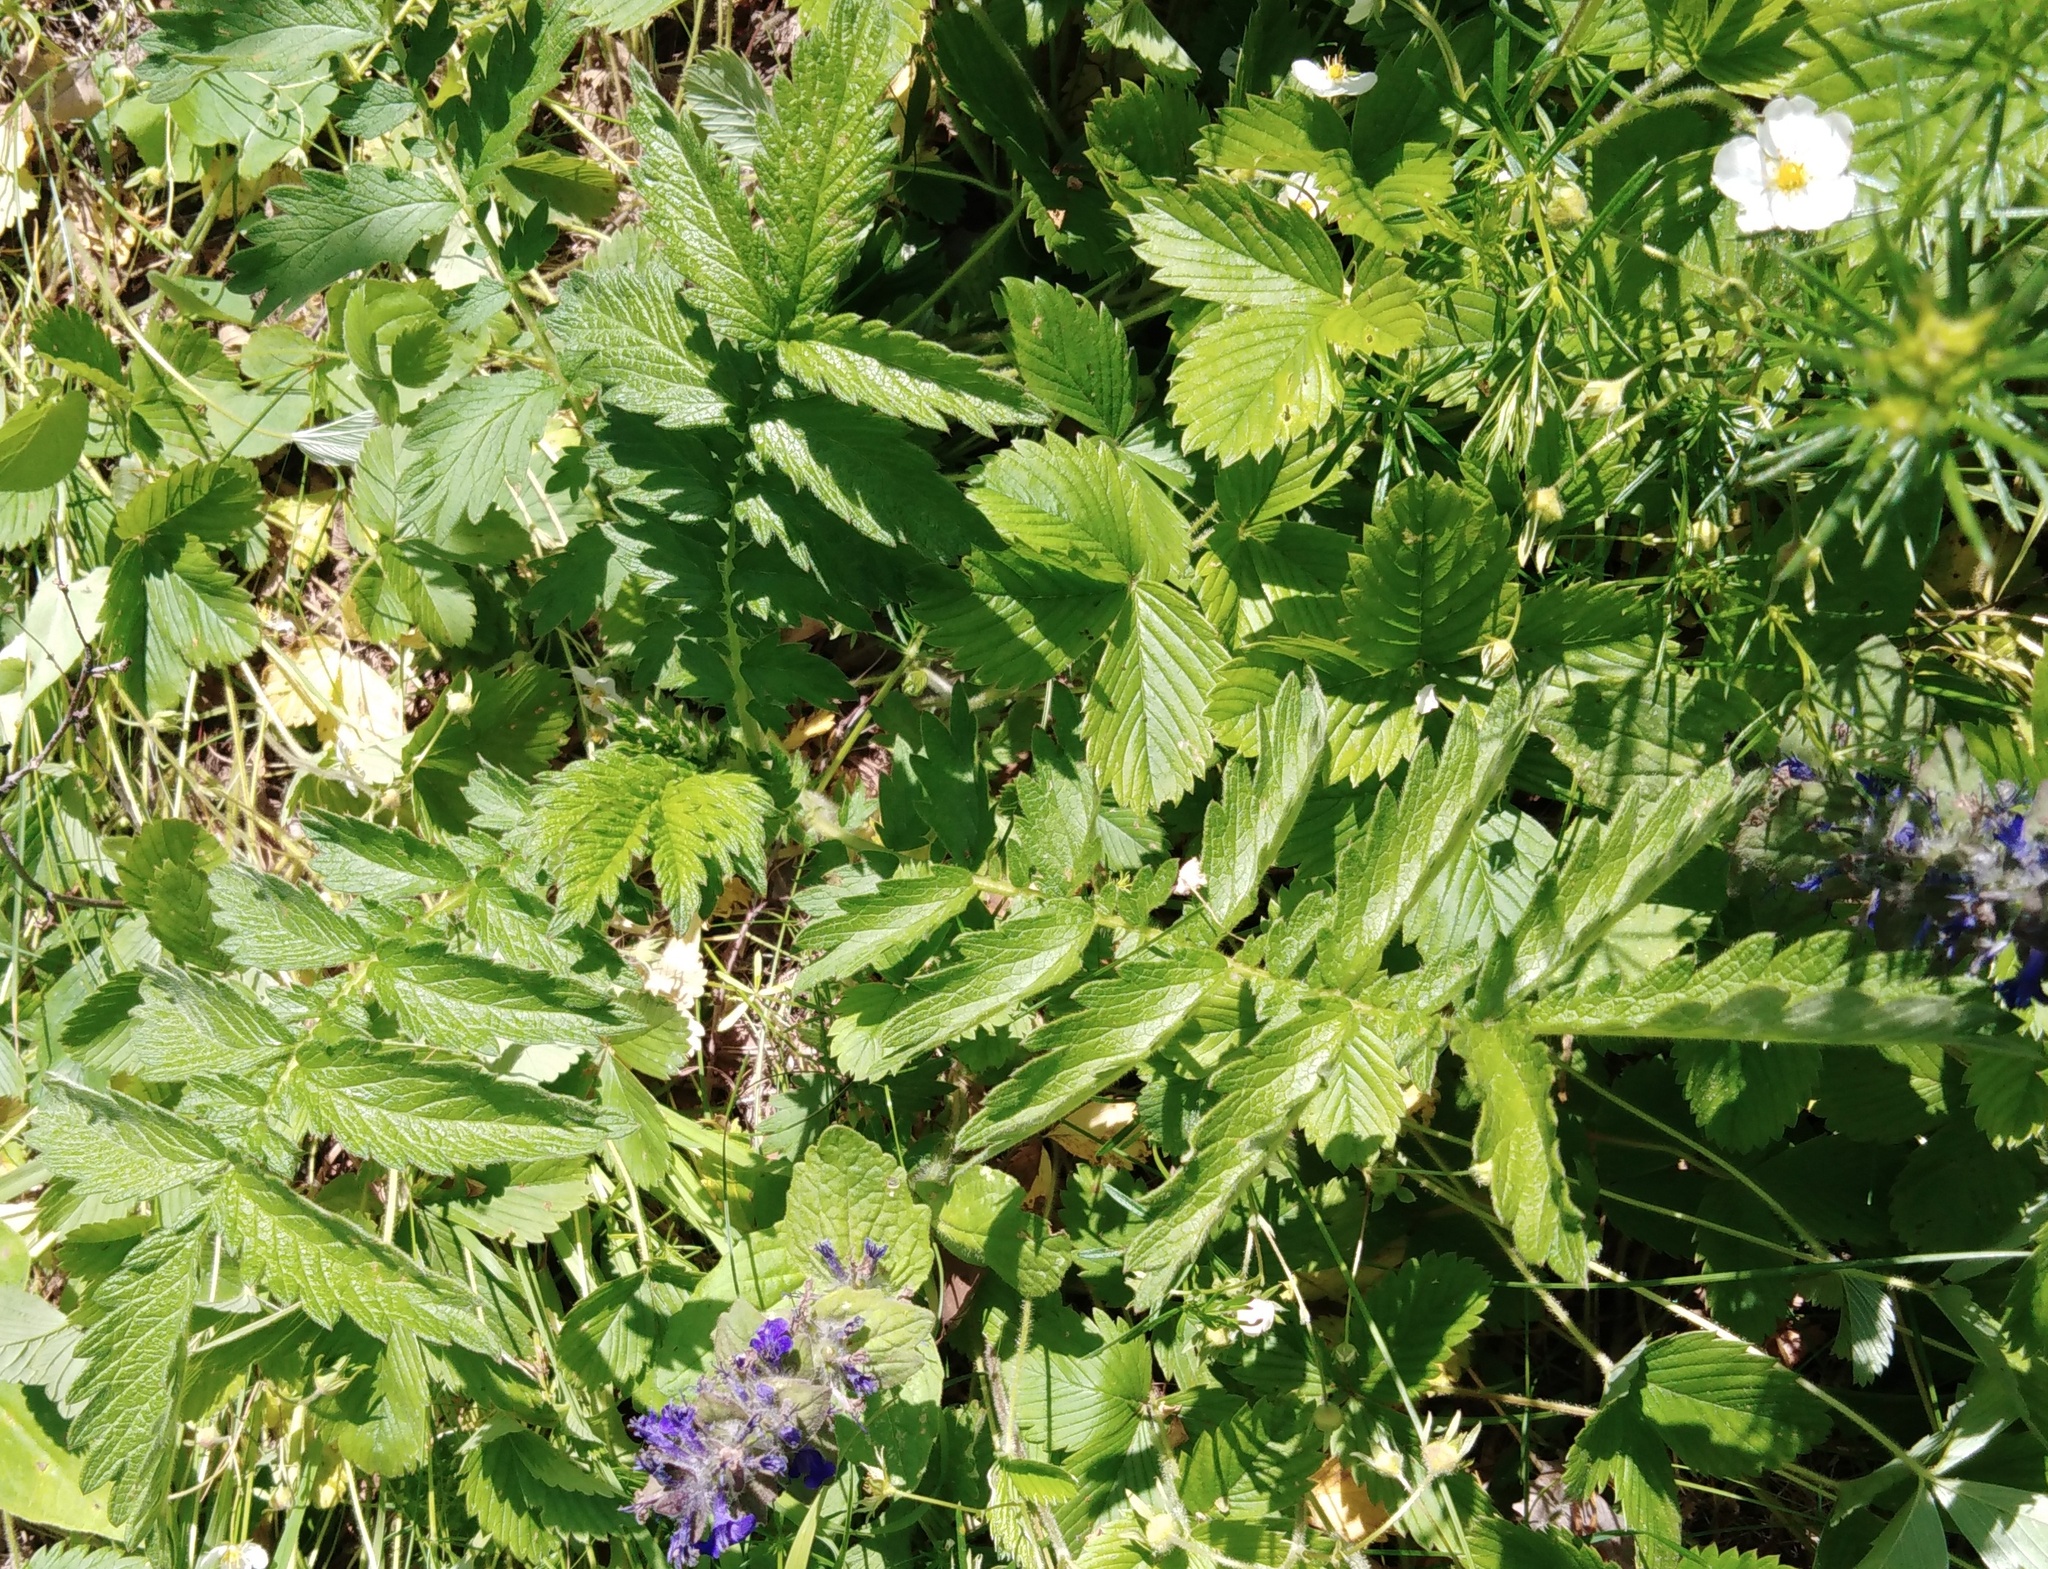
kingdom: Plantae
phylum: Tracheophyta
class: Magnoliopsida
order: Rosales
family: Rosaceae
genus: Agrimonia
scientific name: Agrimonia eupatoria
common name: Agrimony
